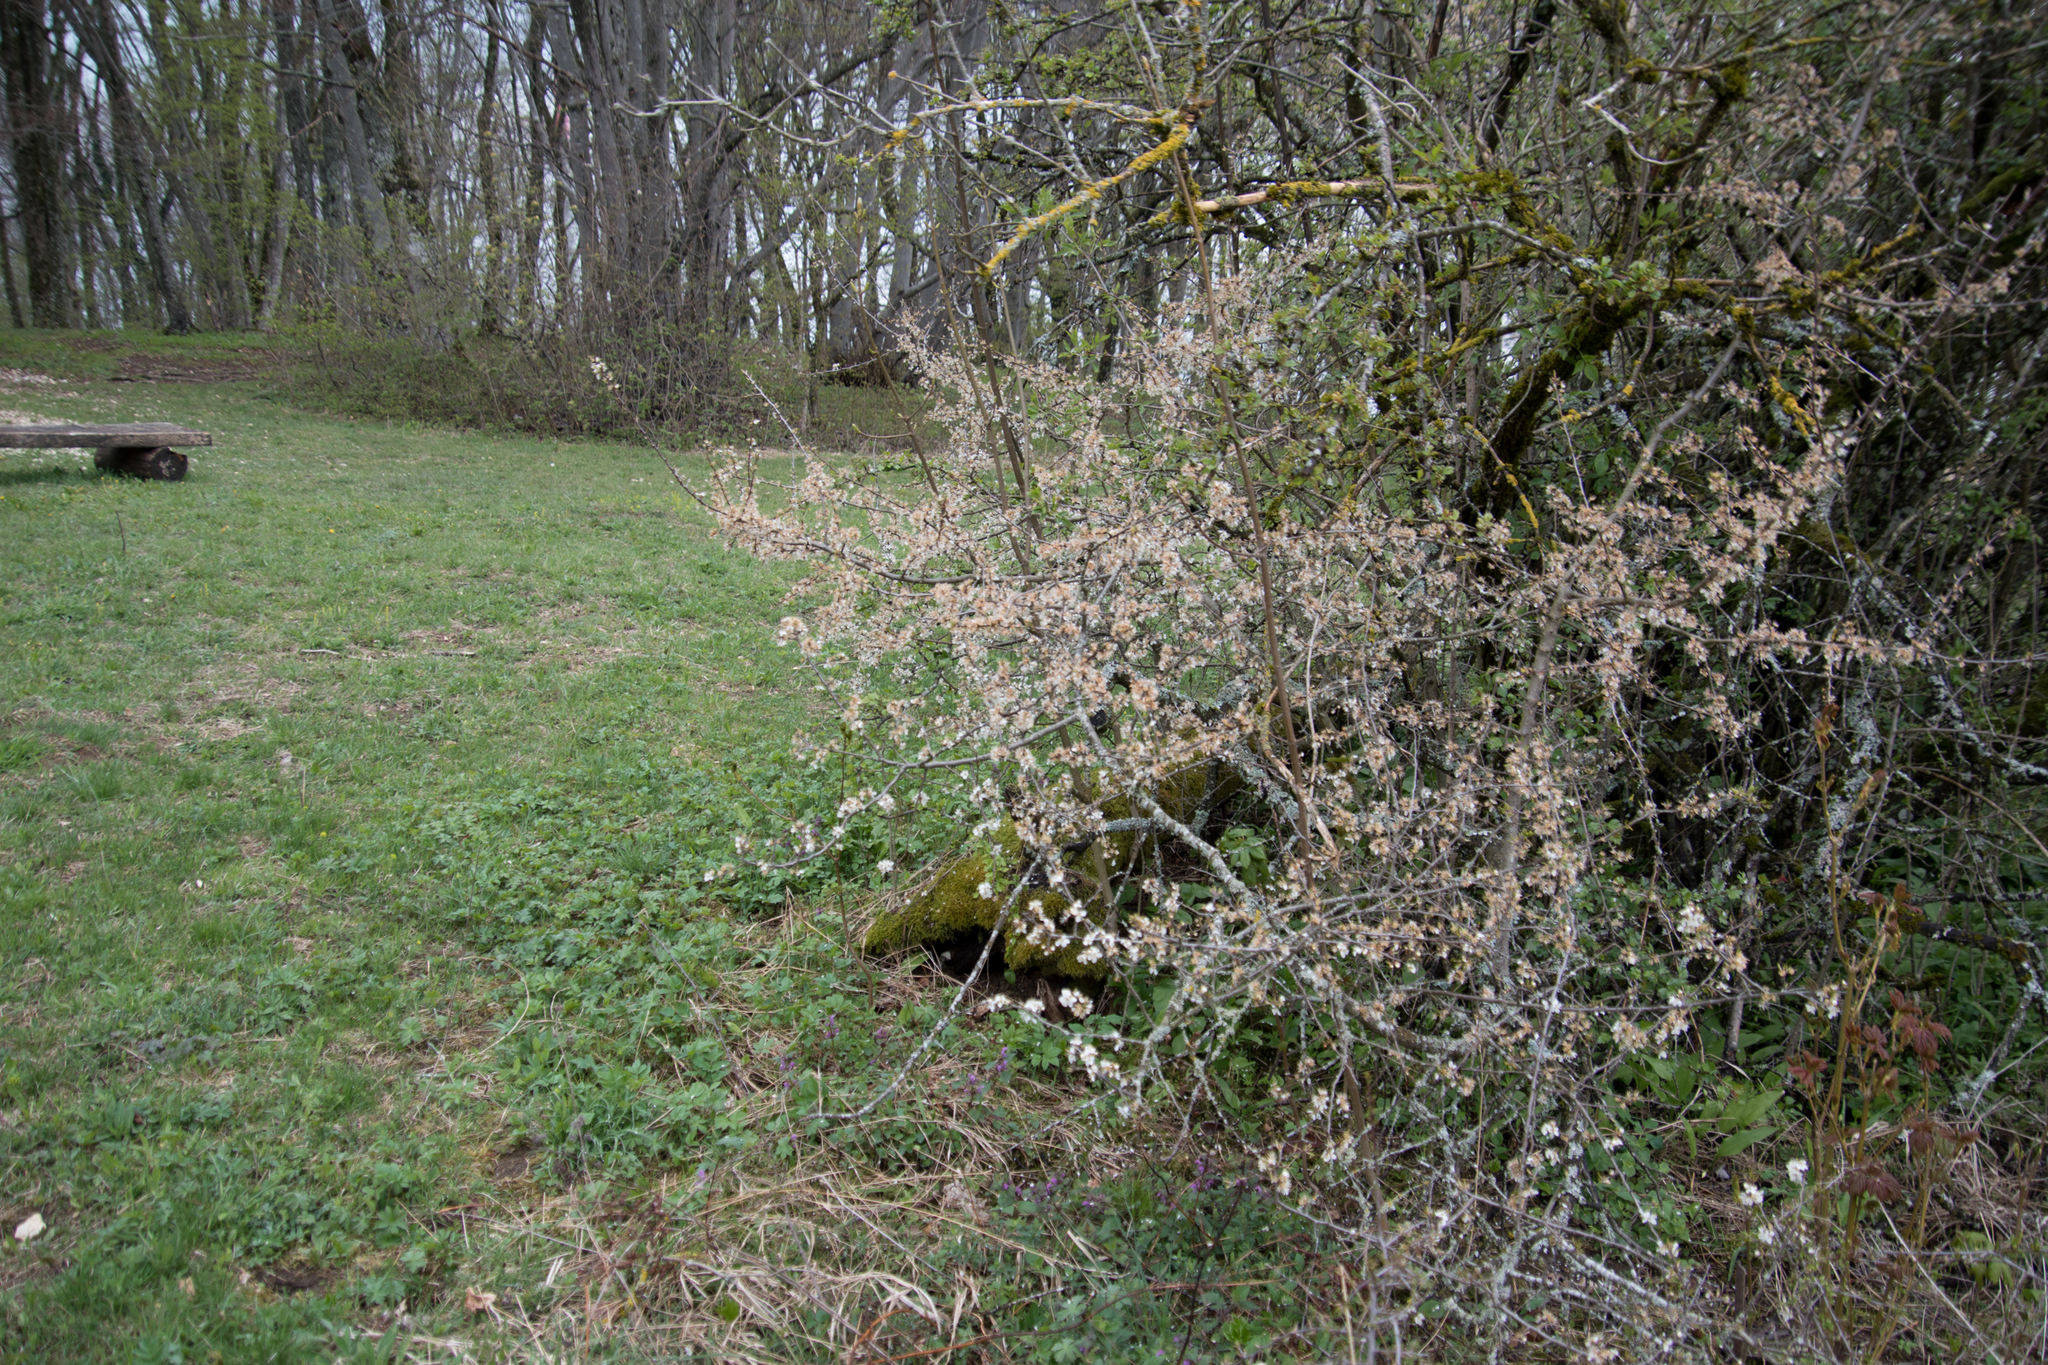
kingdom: Plantae
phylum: Tracheophyta
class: Magnoliopsida
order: Rosales
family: Rosaceae
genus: Prunus
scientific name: Prunus spinosa
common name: Blackthorn
